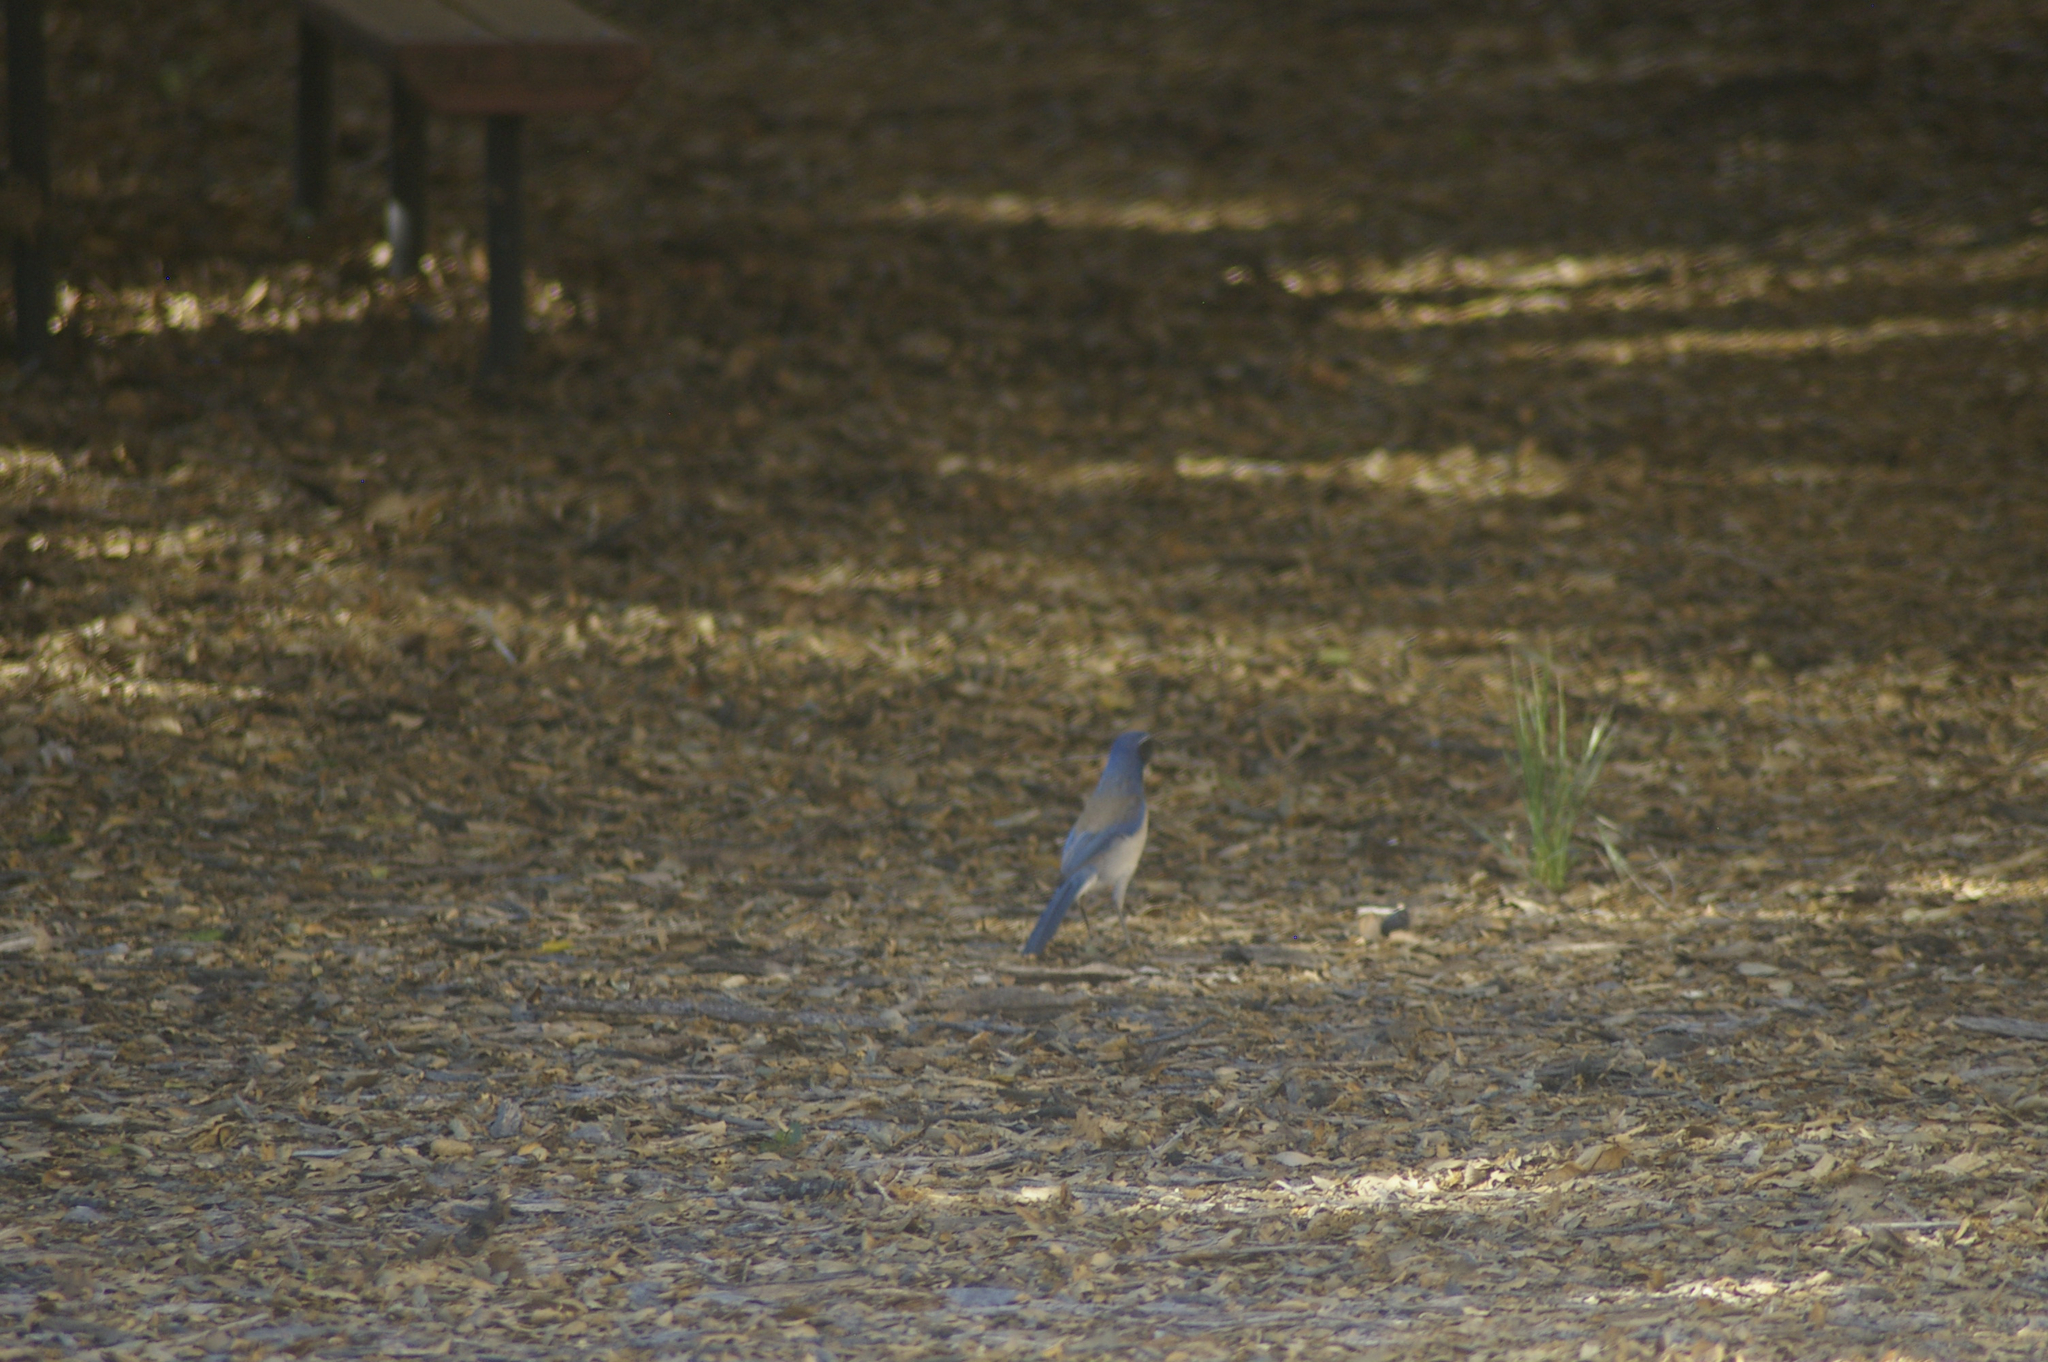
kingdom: Animalia
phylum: Chordata
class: Aves
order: Passeriformes
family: Corvidae
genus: Aphelocoma
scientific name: Aphelocoma californica
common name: California scrub-jay
